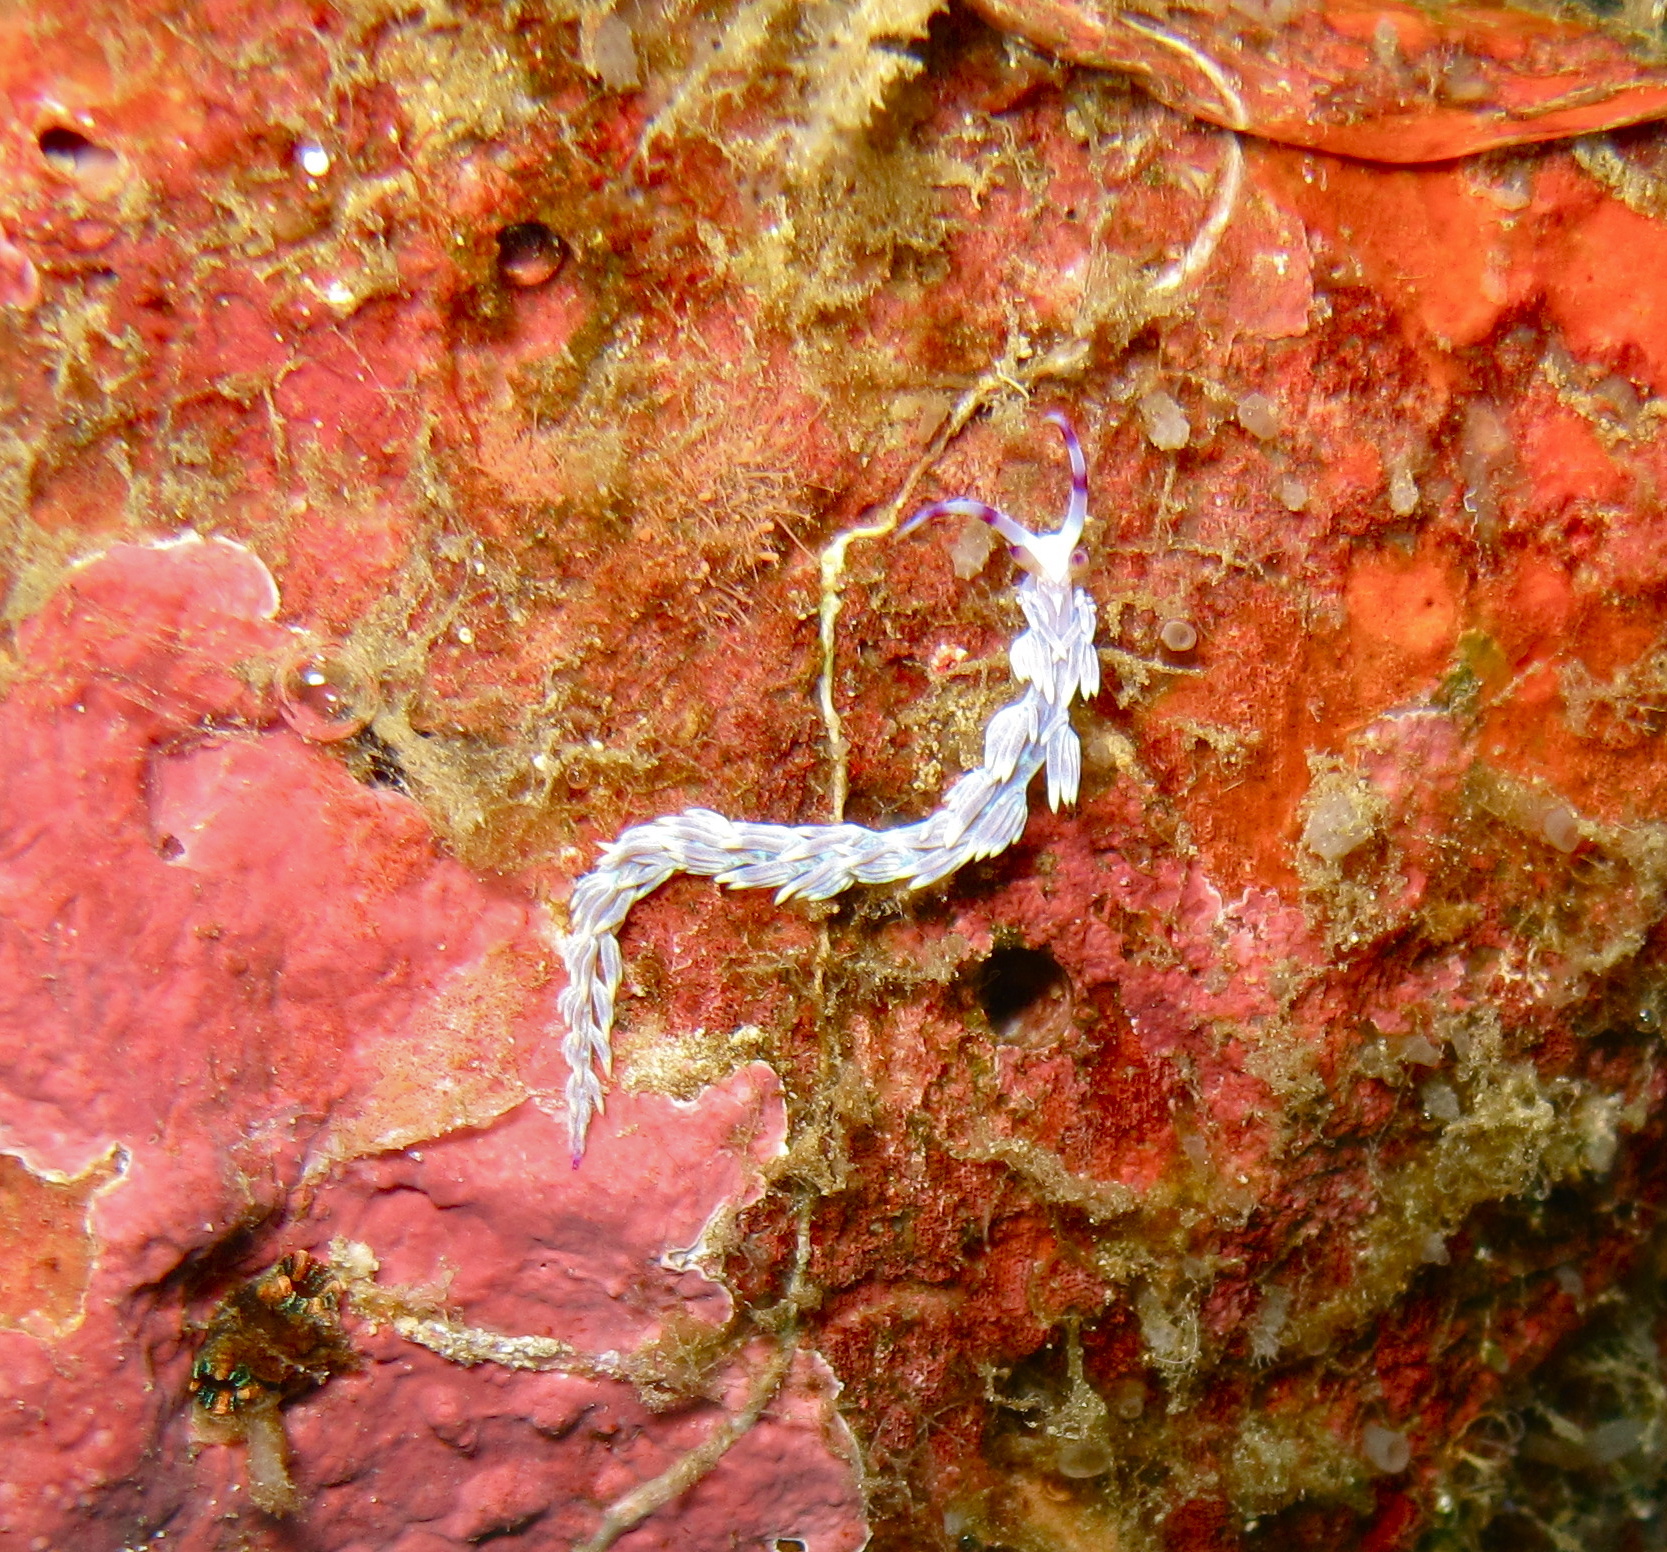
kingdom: Animalia
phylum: Mollusca
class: Gastropoda
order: Nudibranchia
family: Facelinidae
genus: Pteraeolidia
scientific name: Pteraeolidia semperi
